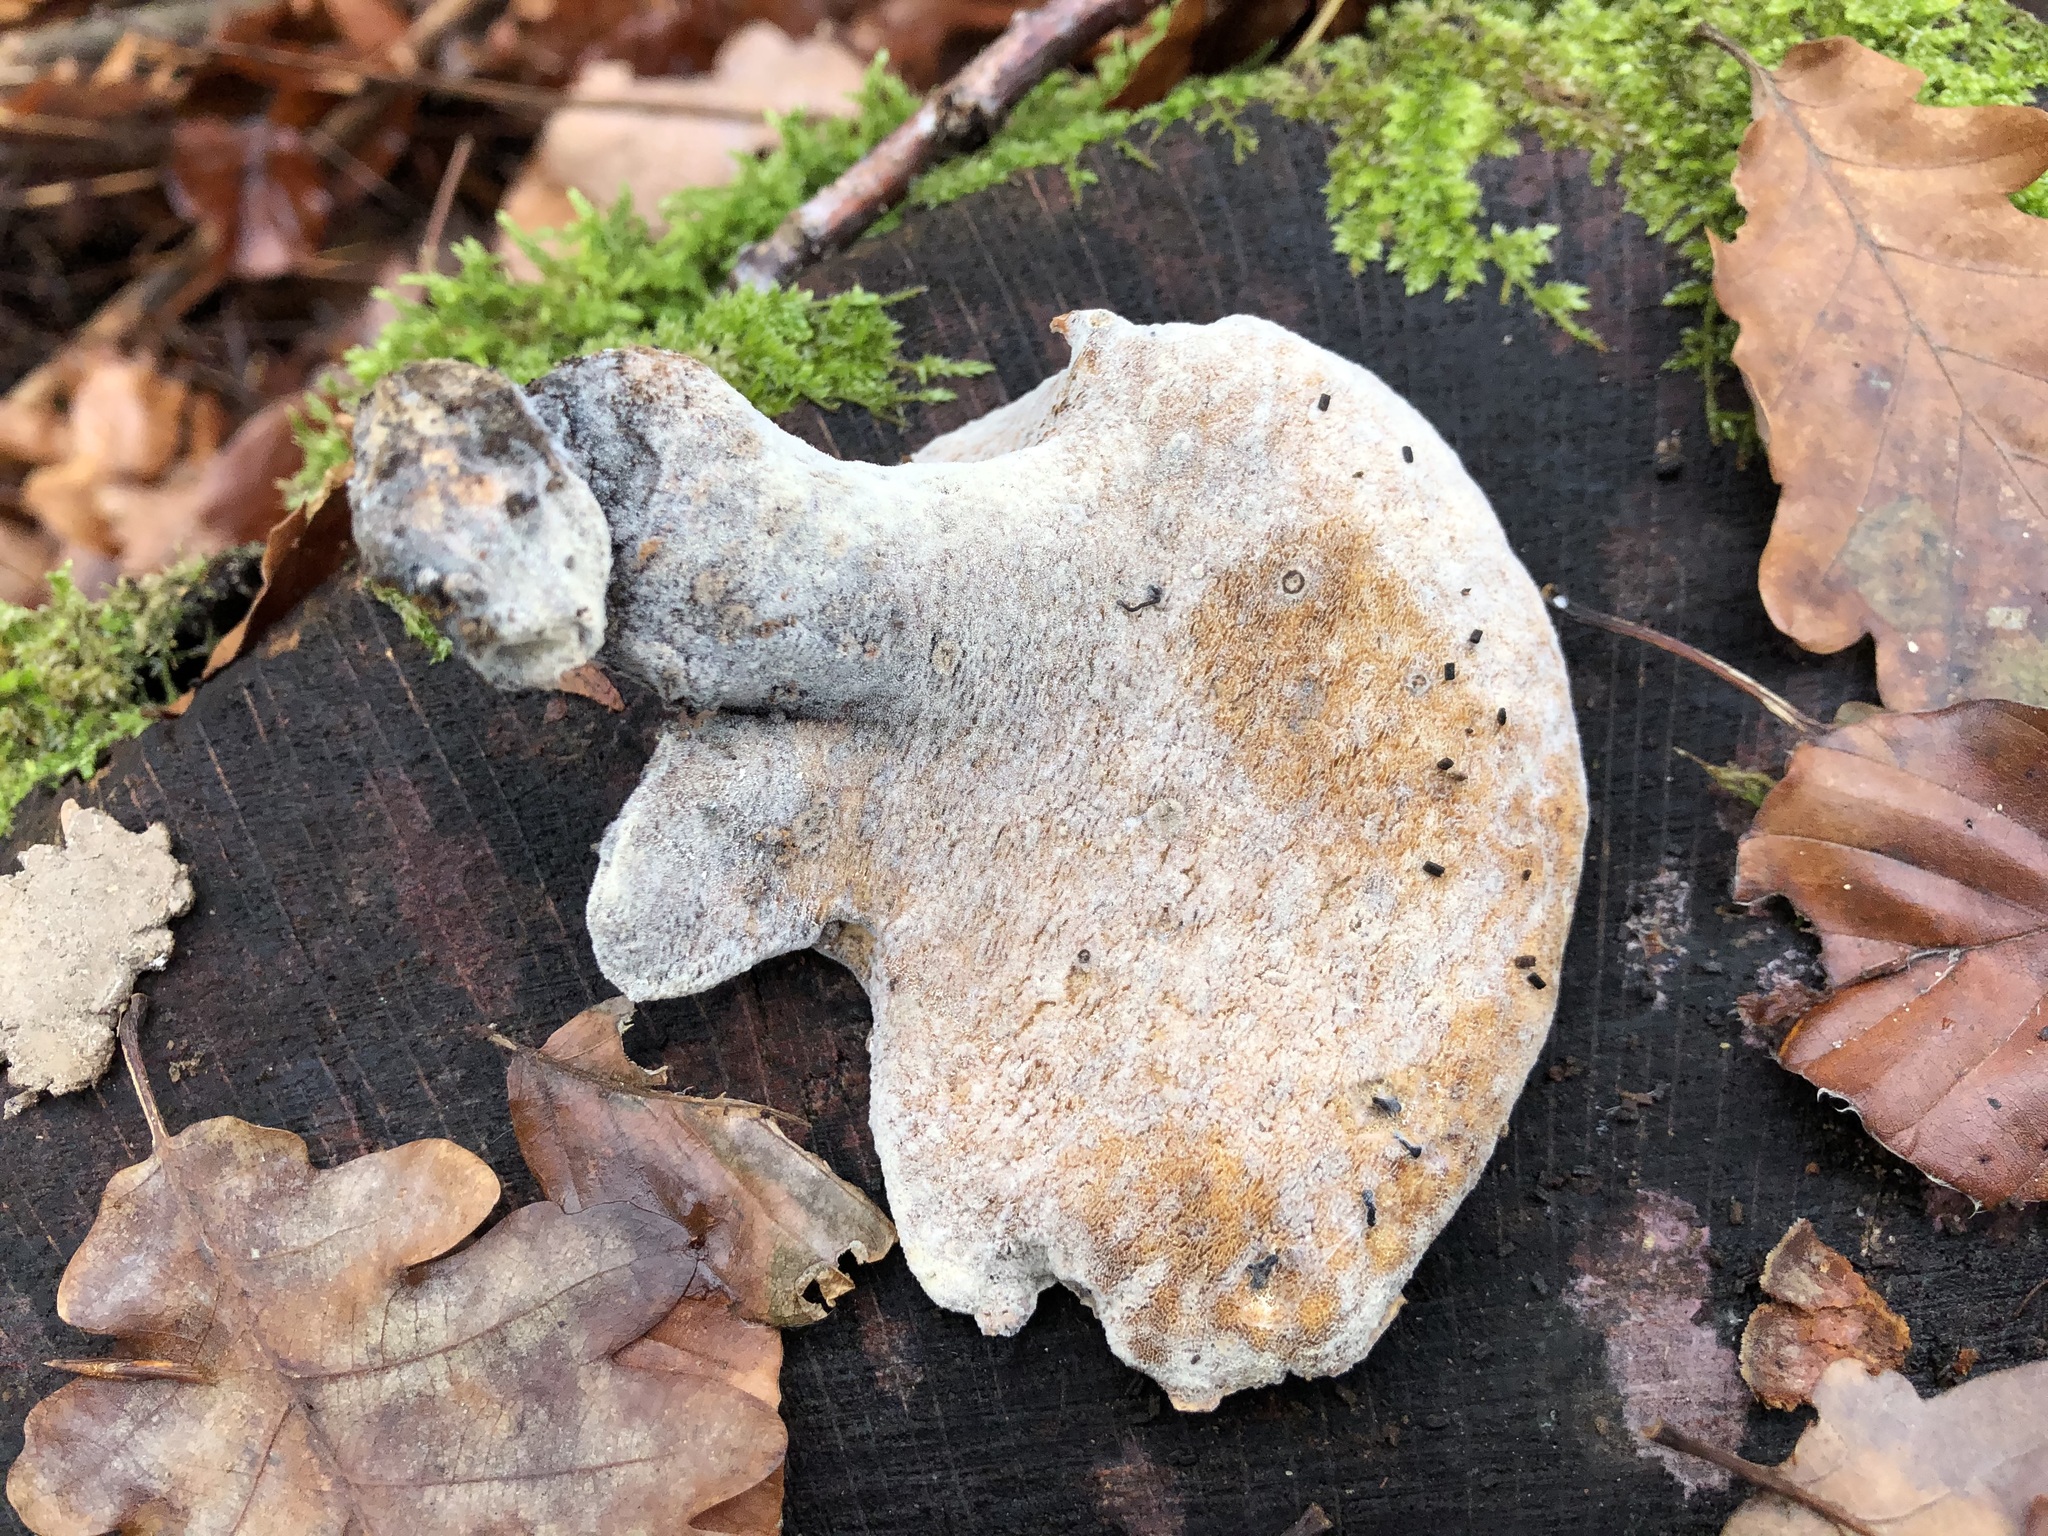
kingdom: Fungi
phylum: Basidiomycota
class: Agaricomycetes
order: Polyporales
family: Polyporaceae
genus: Picipes
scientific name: Picipes badius
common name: Bay polypore
